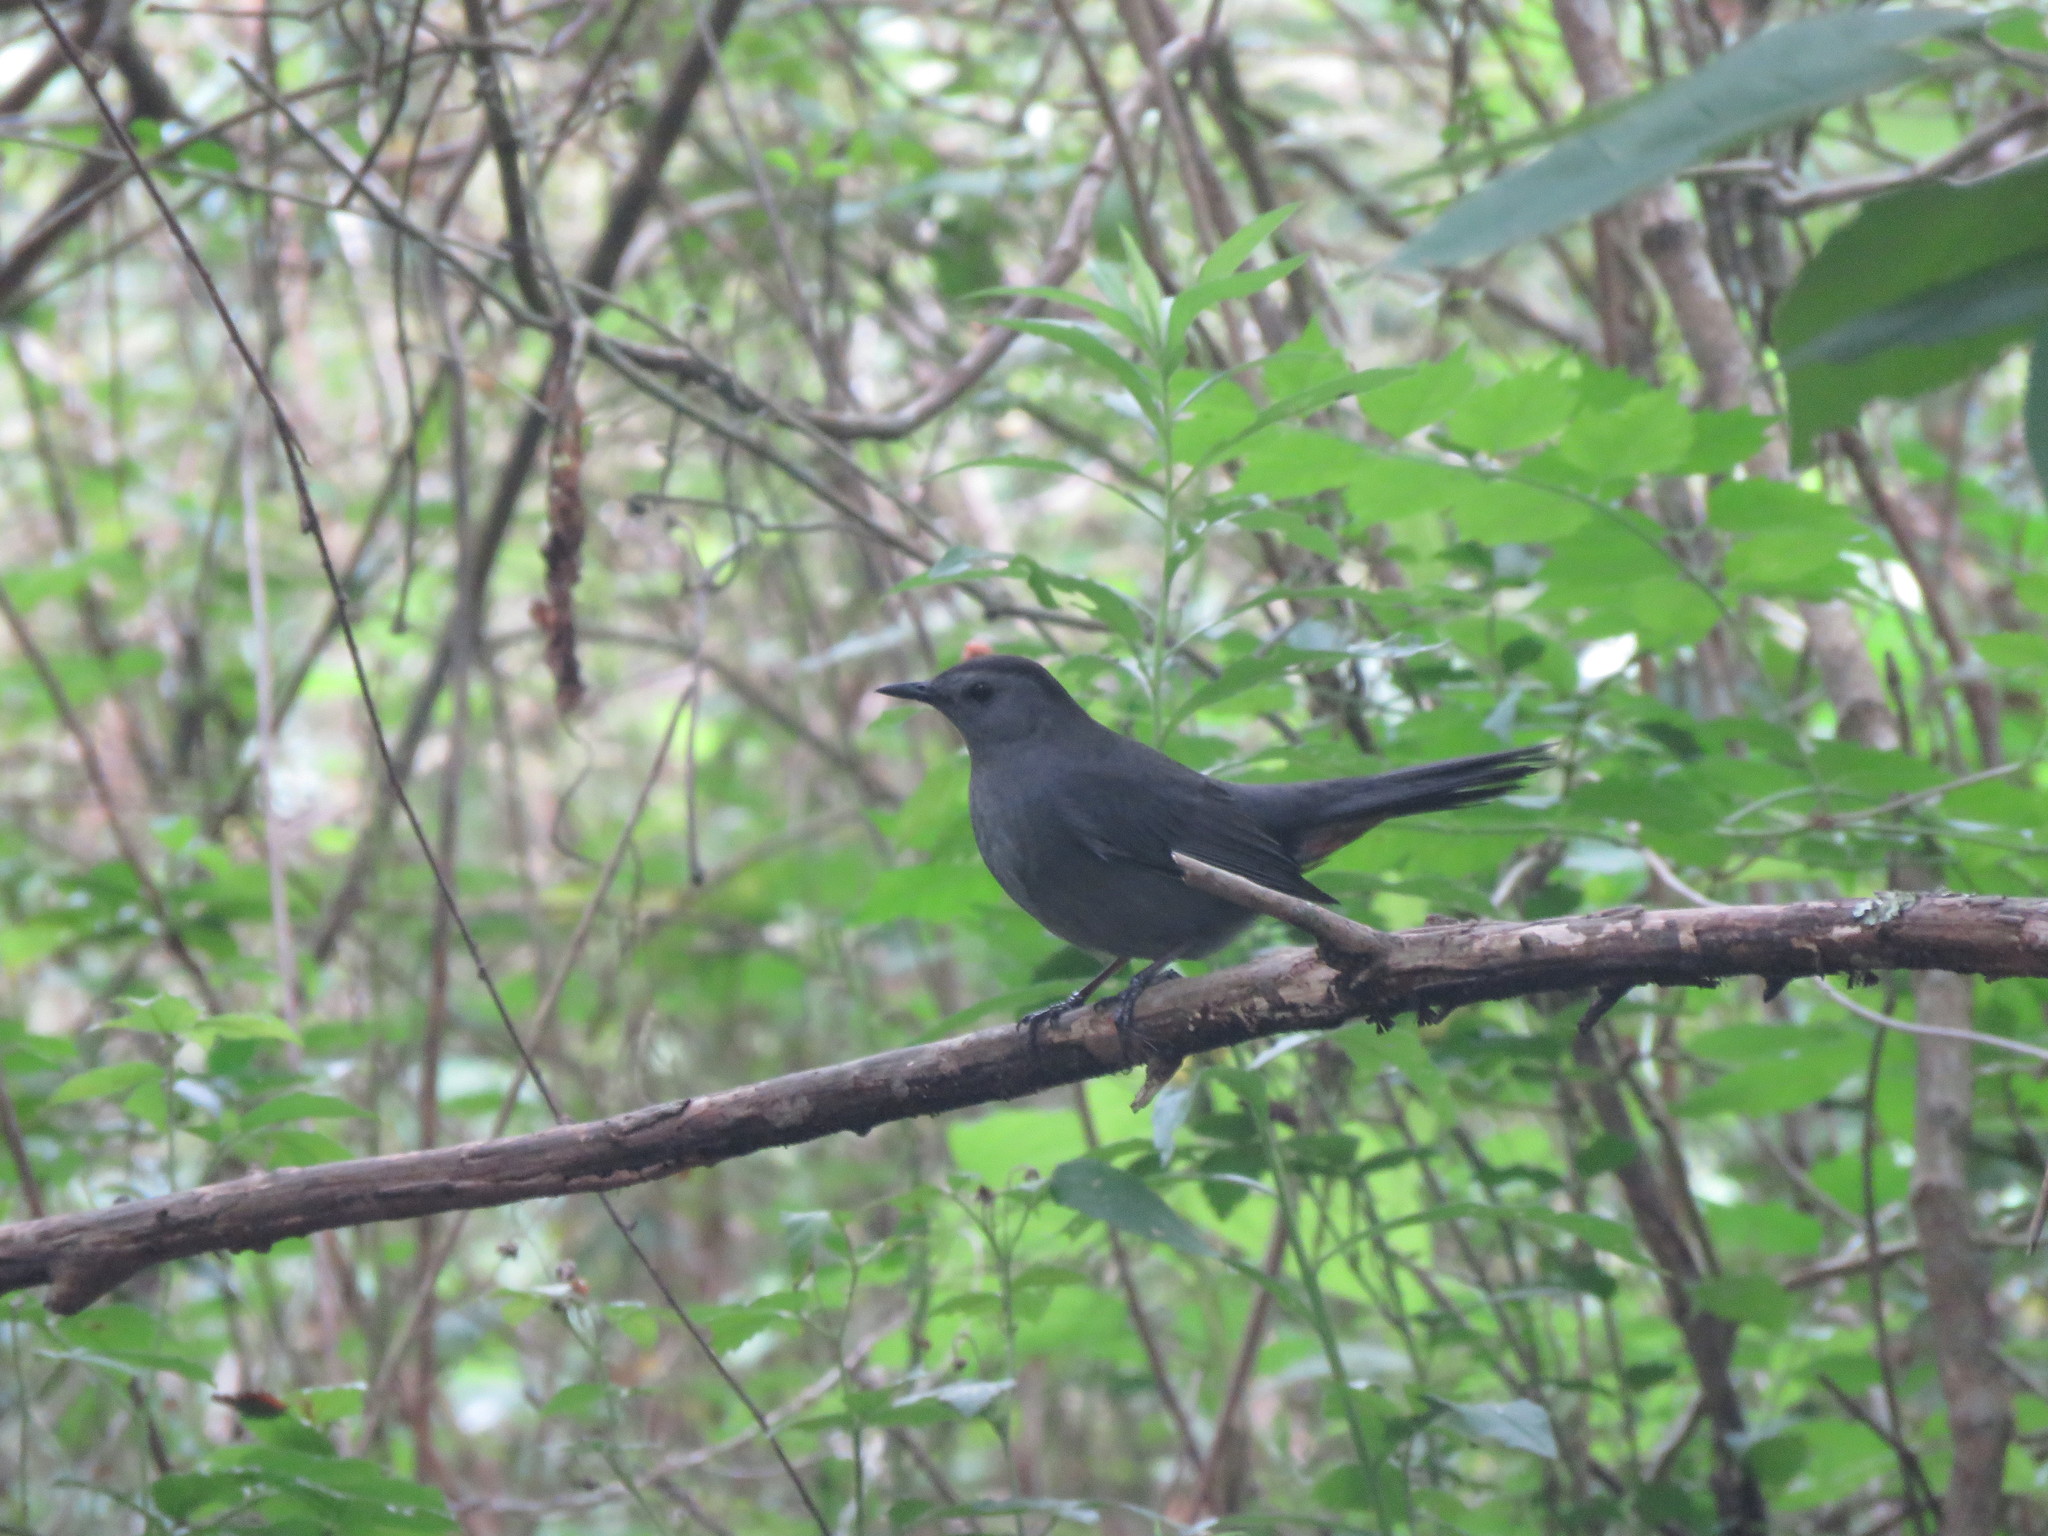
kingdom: Animalia
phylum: Chordata
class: Aves
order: Passeriformes
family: Mimidae
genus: Dumetella
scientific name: Dumetella carolinensis
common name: Gray catbird
